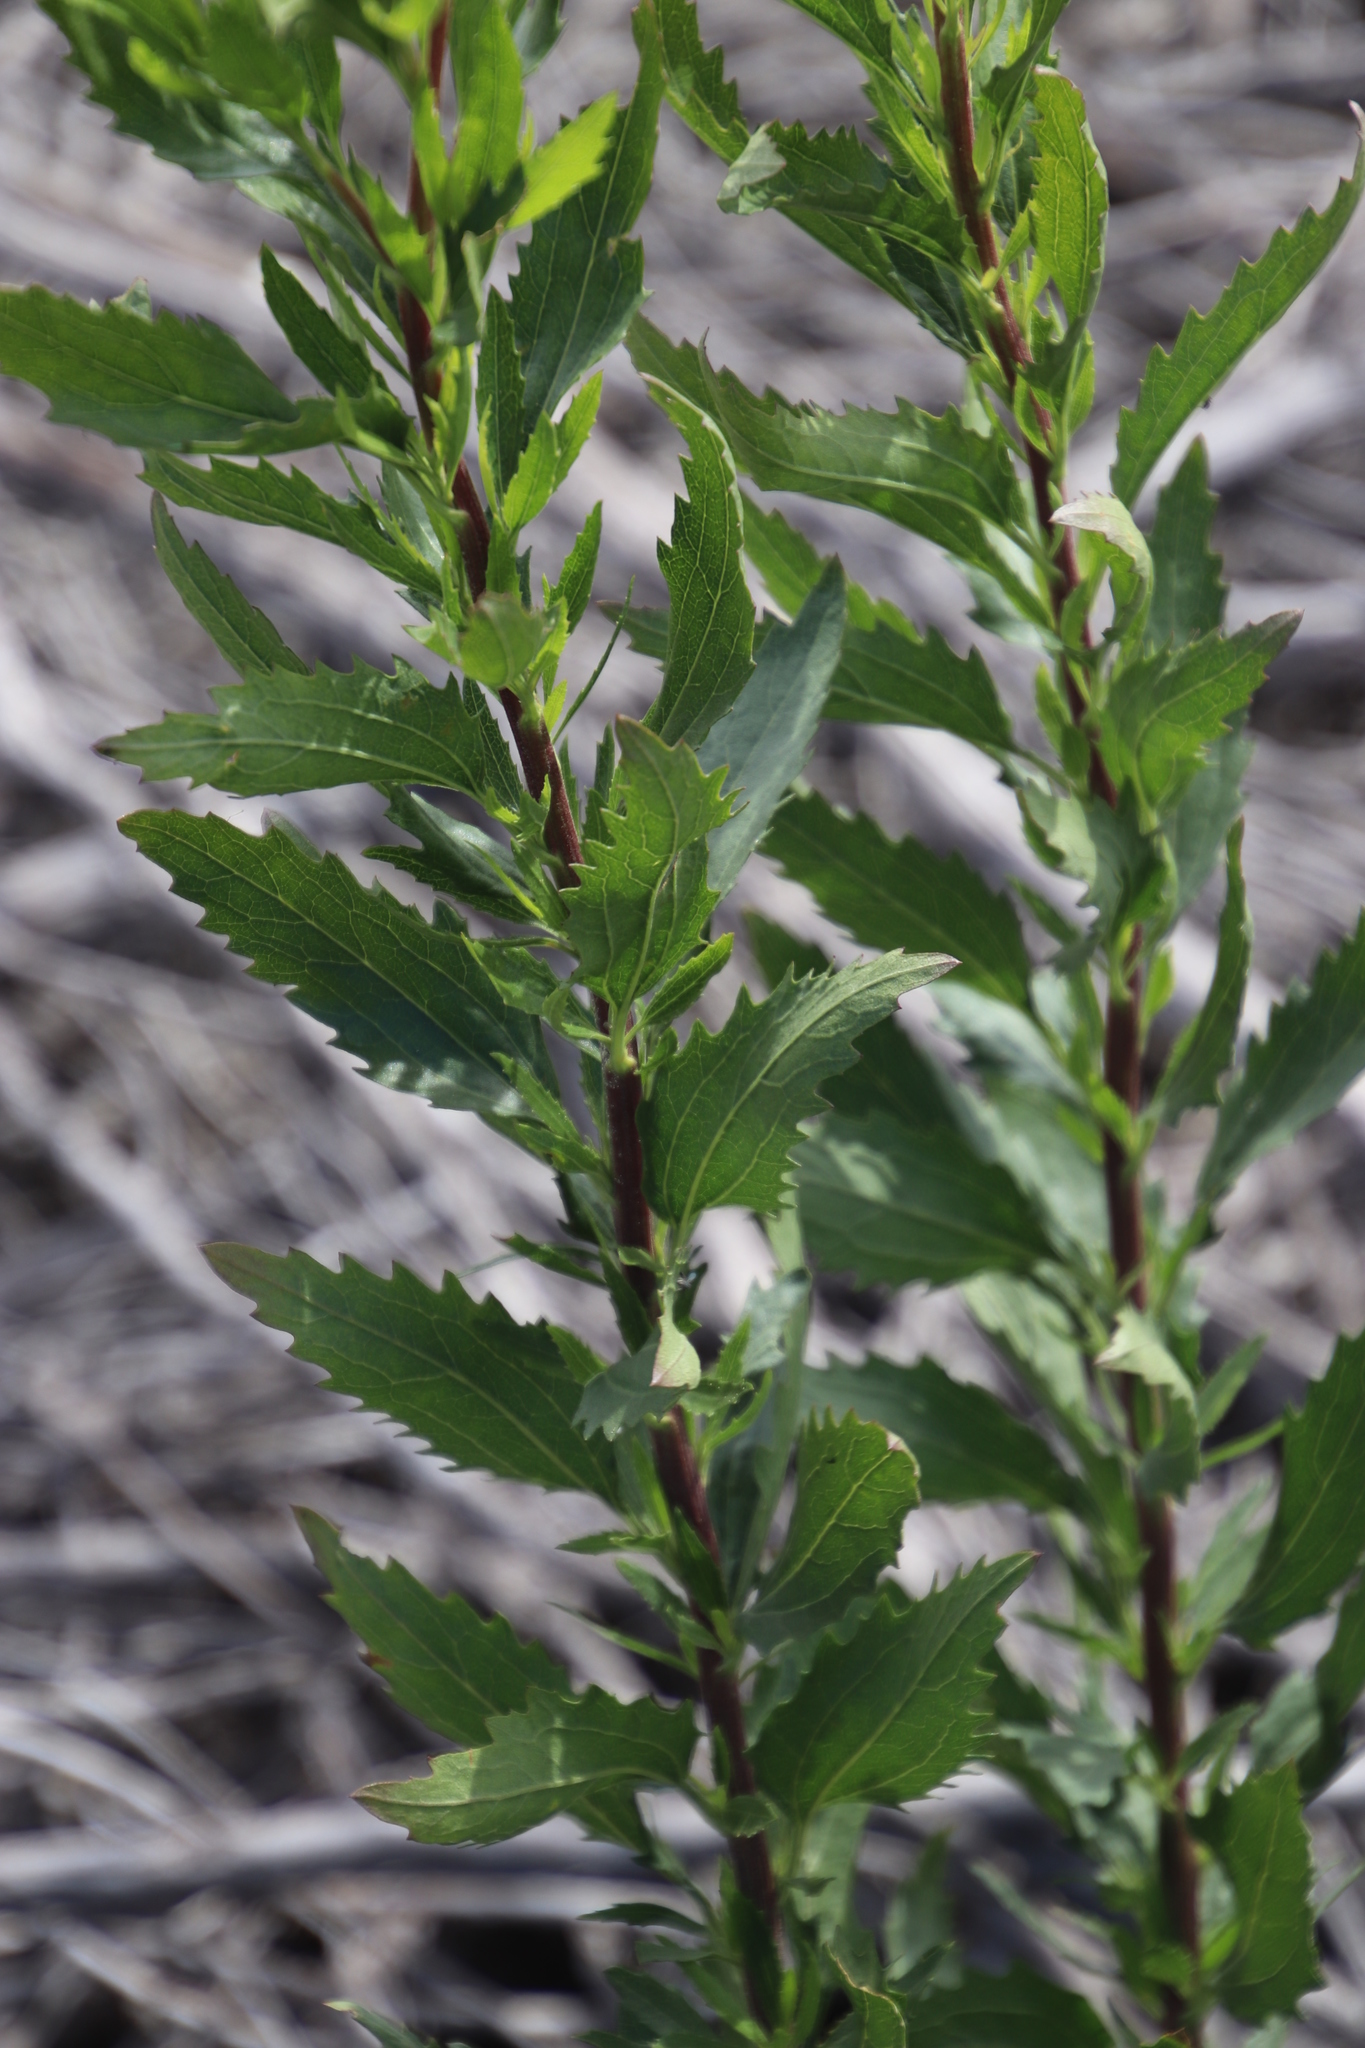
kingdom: Plantae
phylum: Tracheophyta
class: Magnoliopsida
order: Asterales
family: Asteraceae
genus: Nidorella
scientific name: Nidorella ivifolia
